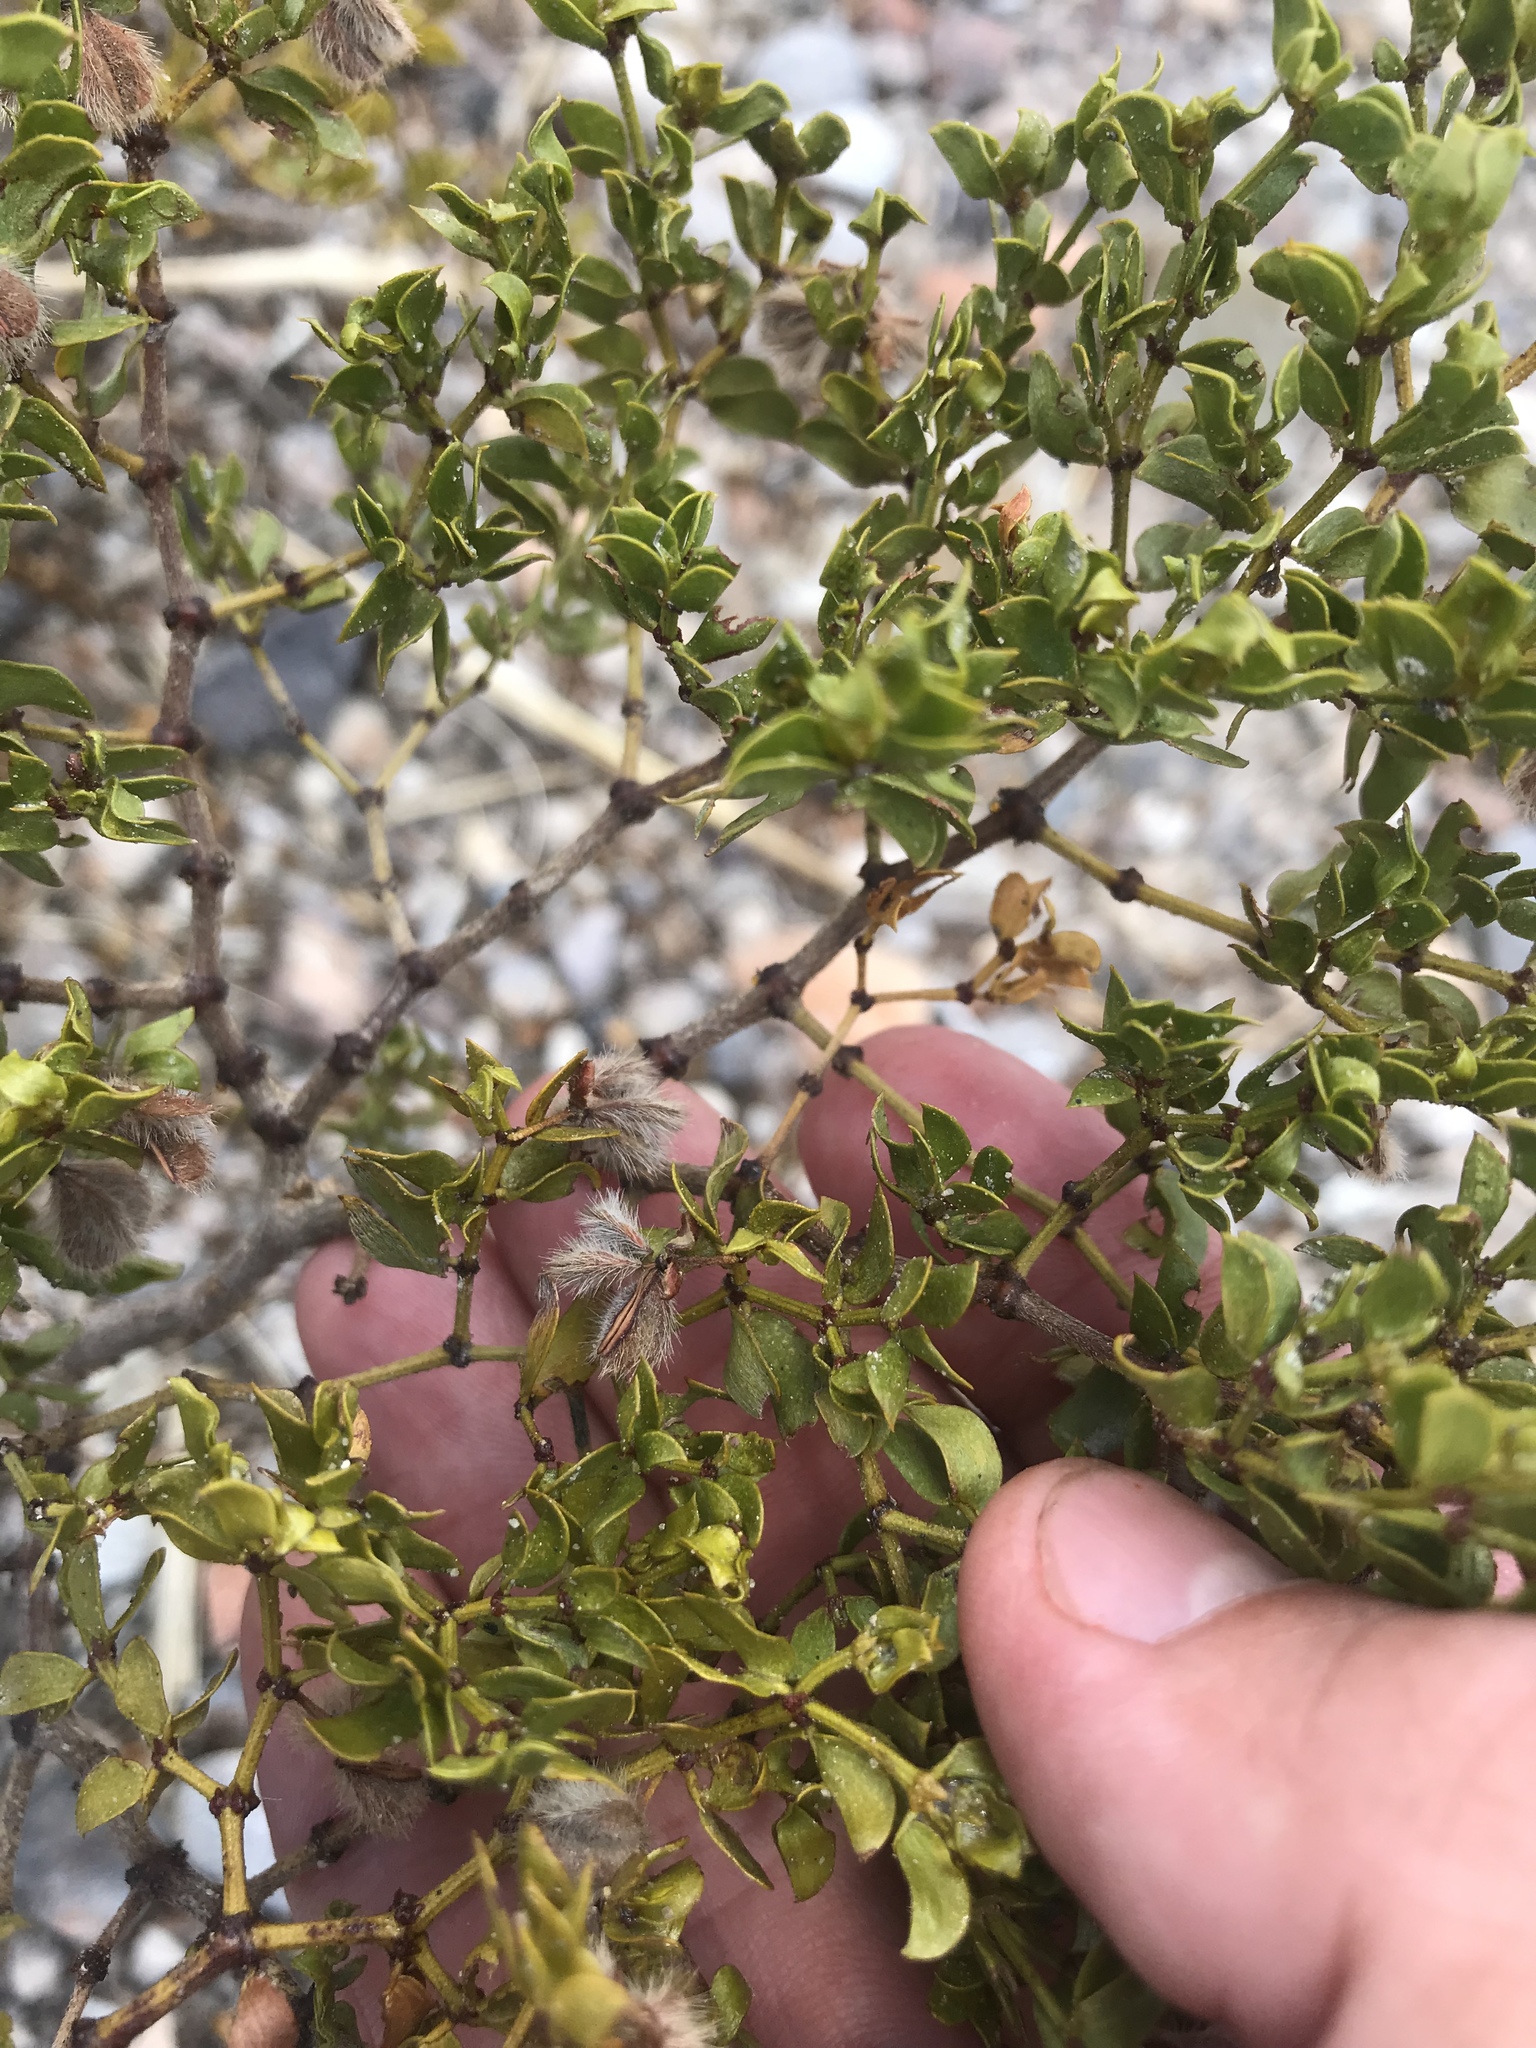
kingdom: Plantae
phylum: Tracheophyta
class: Magnoliopsida
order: Zygophyllales
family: Zygophyllaceae
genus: Larrea
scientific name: Larrea tridentata
